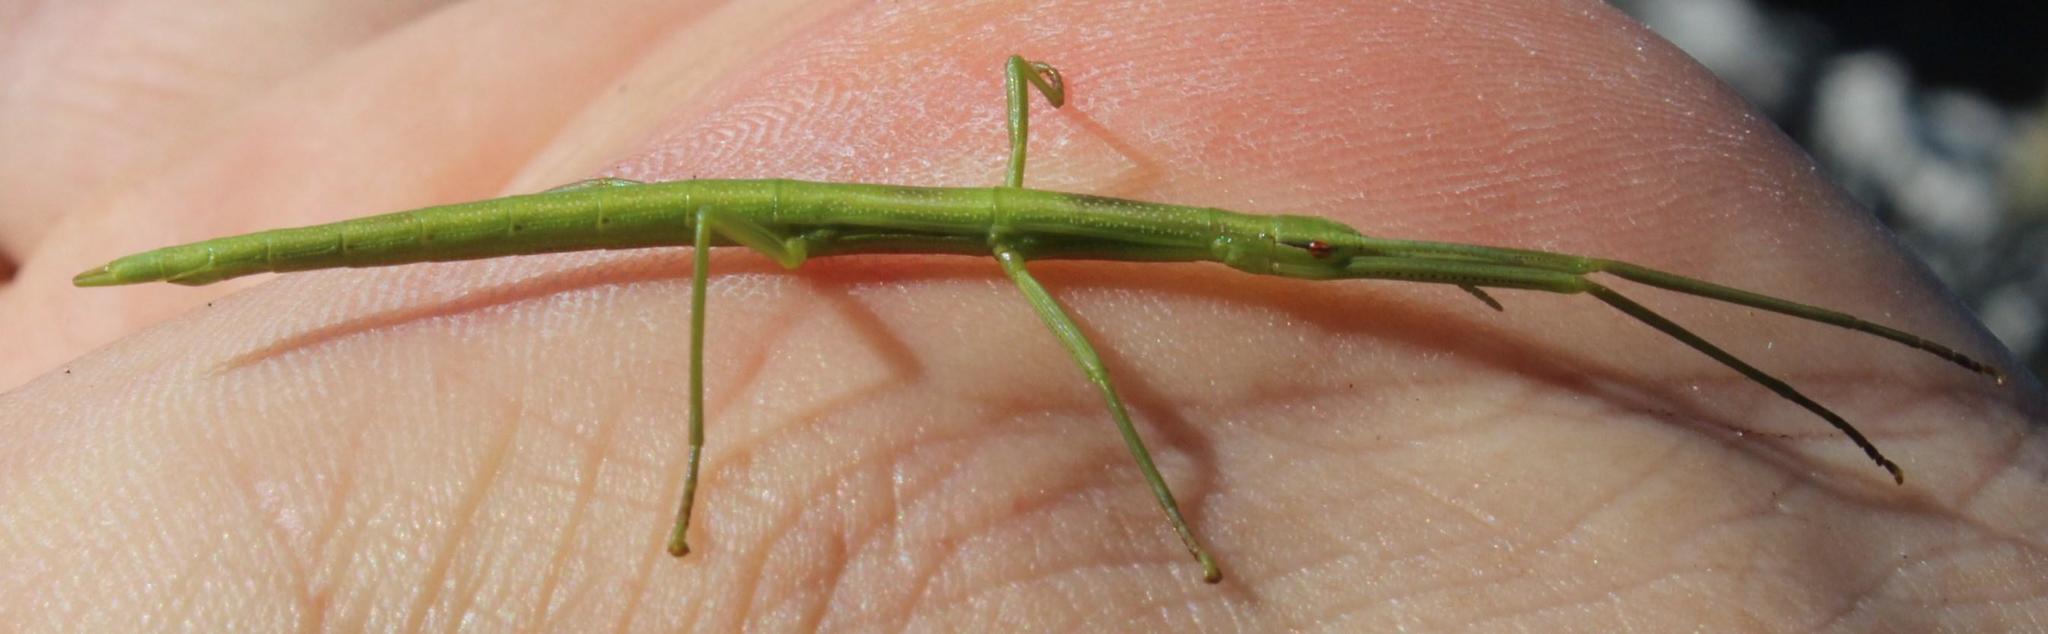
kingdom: Animalia
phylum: Arthropoda
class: Insecta
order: Phasmida
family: Bacillidae
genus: Macynia
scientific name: Macynia labiata
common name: Thunberg's stick insect
